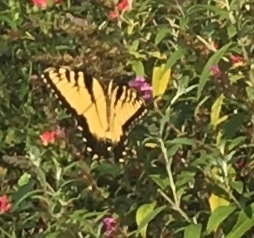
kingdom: Animalia
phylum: Arthropoda
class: Insecta
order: Lepidoptera
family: Papilionidae
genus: Papilio
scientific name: Papilio glaucus
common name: Tiger swallowtail
